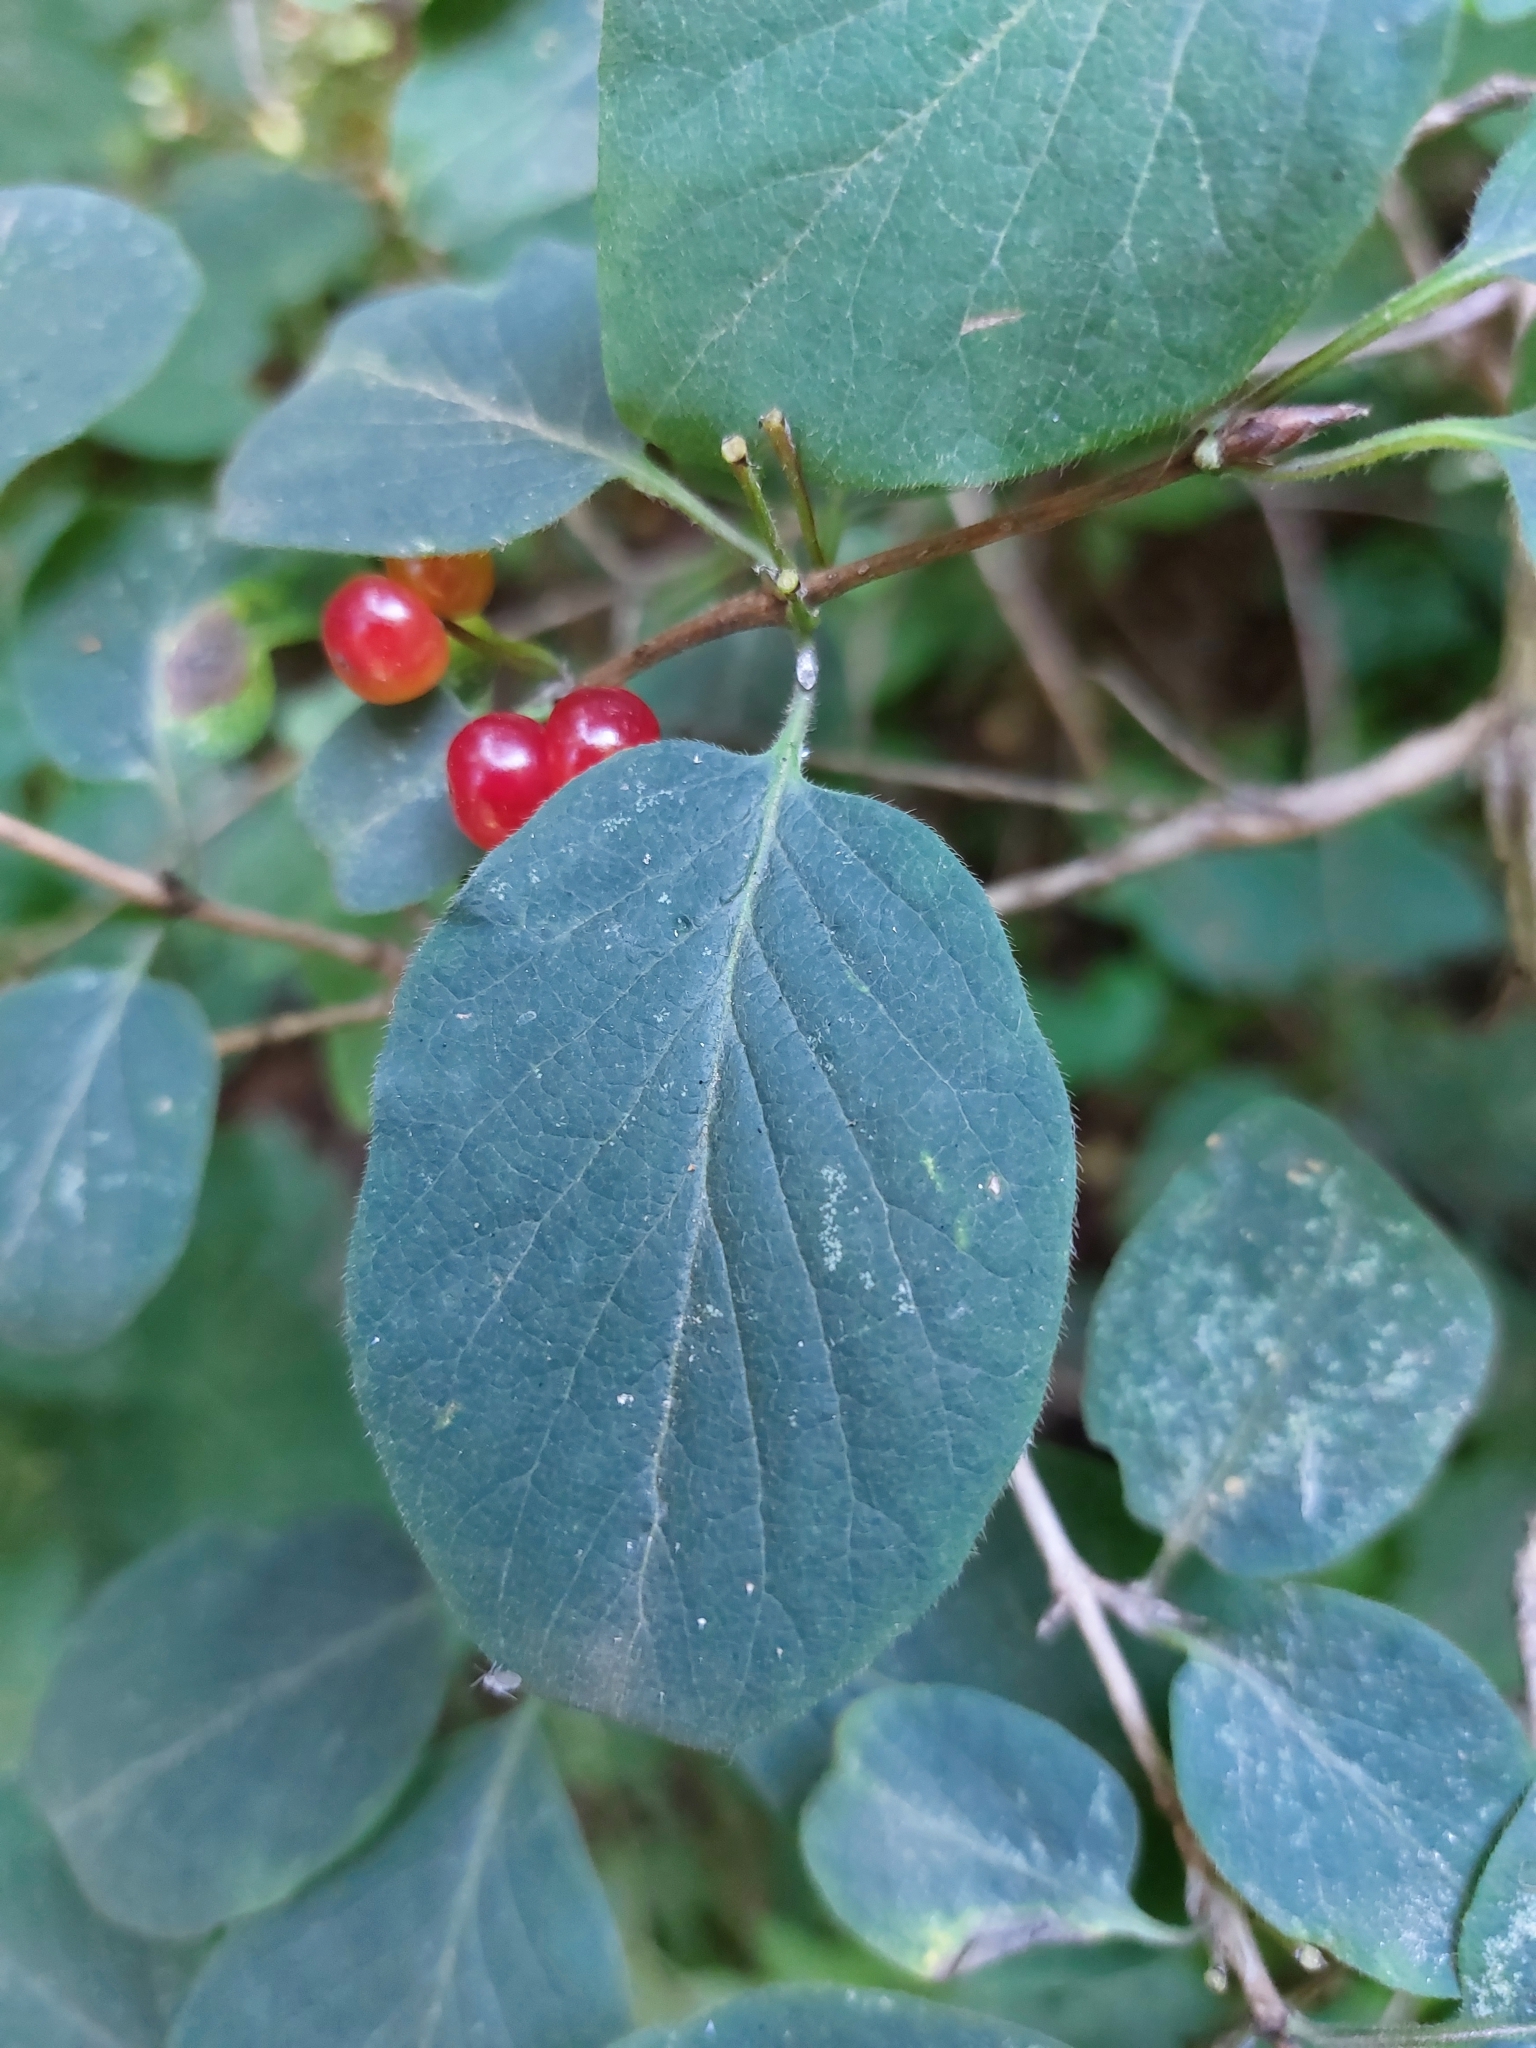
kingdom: Plantae
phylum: Tracheophyta
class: Magnoliopsida
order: Dipsacales
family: Caprifoliaceae
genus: Lonicera
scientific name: Lonicera xylosteum
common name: Fly honeysuckle
